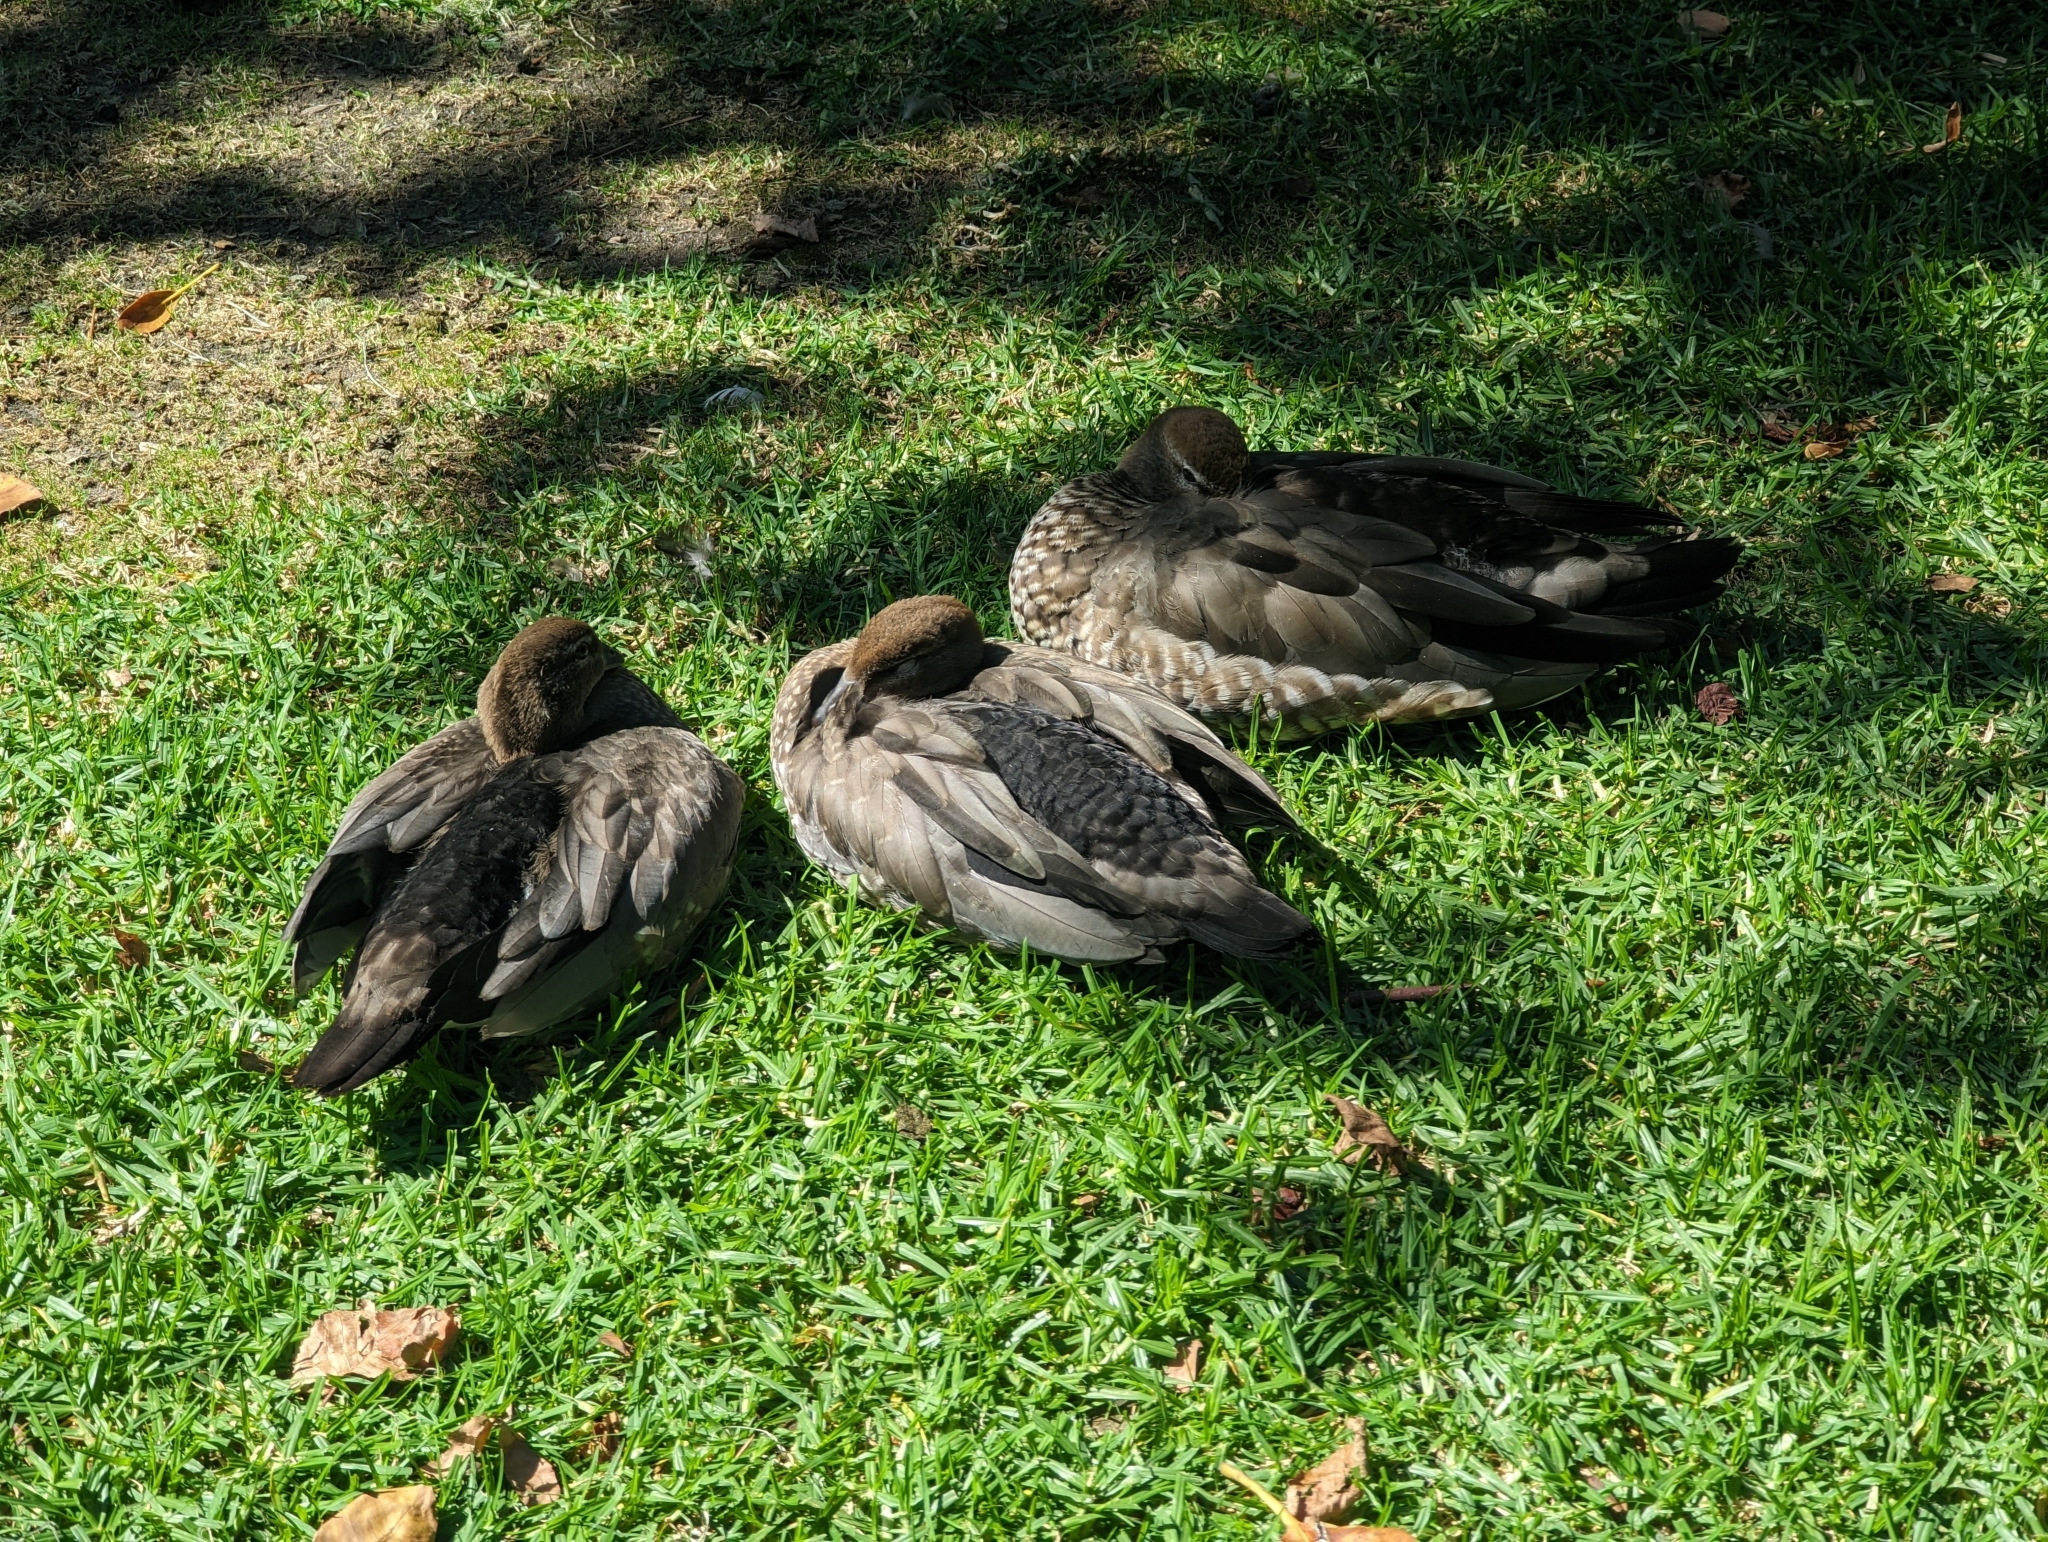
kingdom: Animalia
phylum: Chordata
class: Aves
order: Anseriformes
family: Anatidae
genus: Chenonetta
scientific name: Chenonetta jubata
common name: Maned duck
